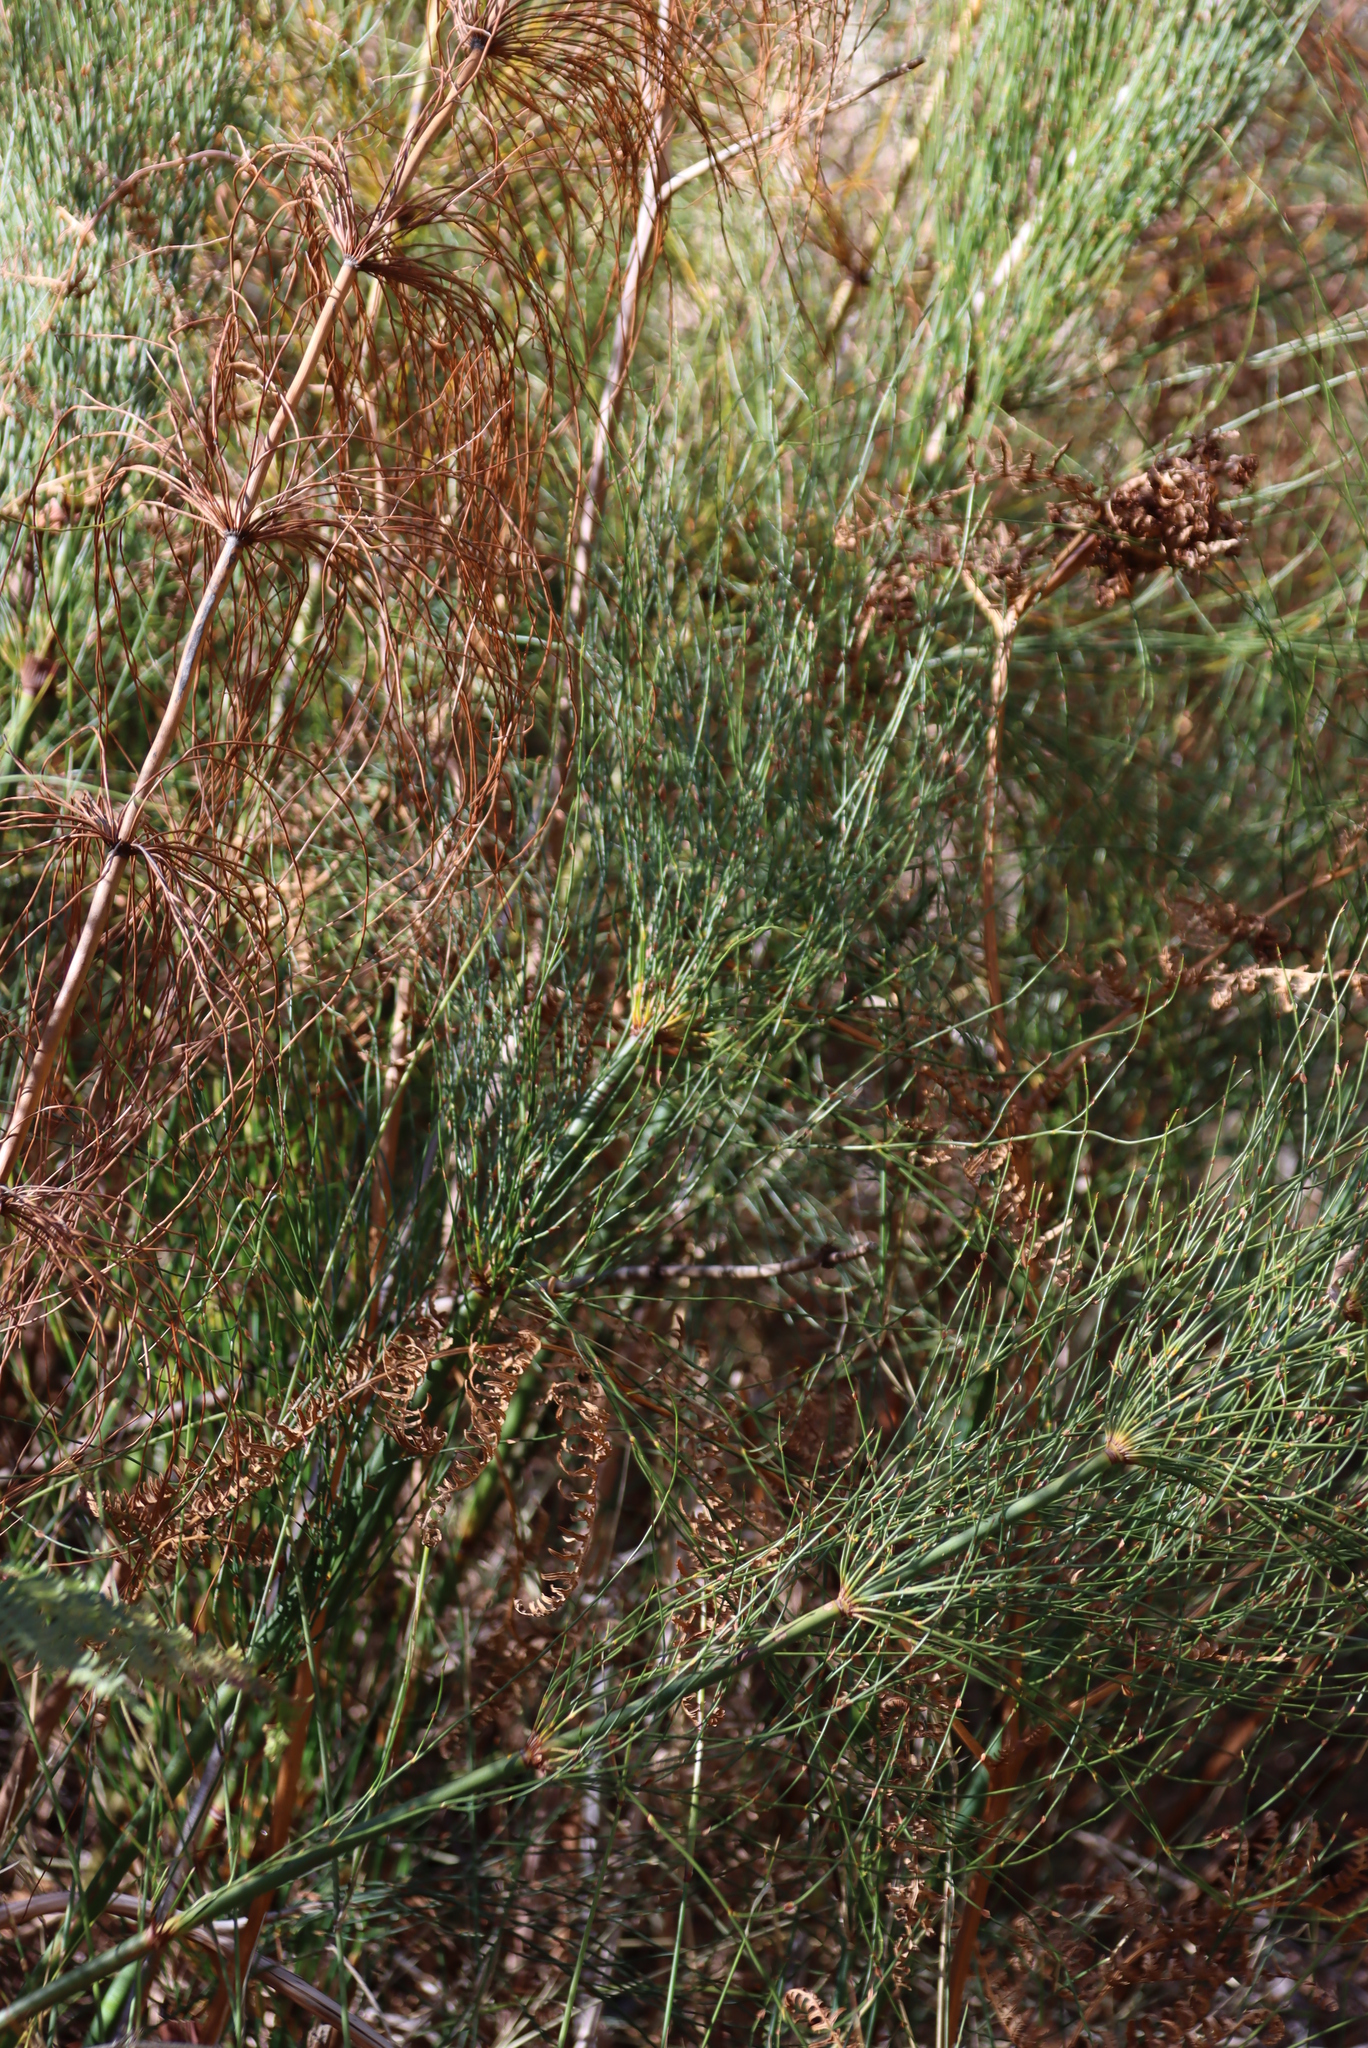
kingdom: Plantae
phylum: Tracheophyta
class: Liliopsida
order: Poales
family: Restionaceae
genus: Elegia
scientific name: Elegia capensis
